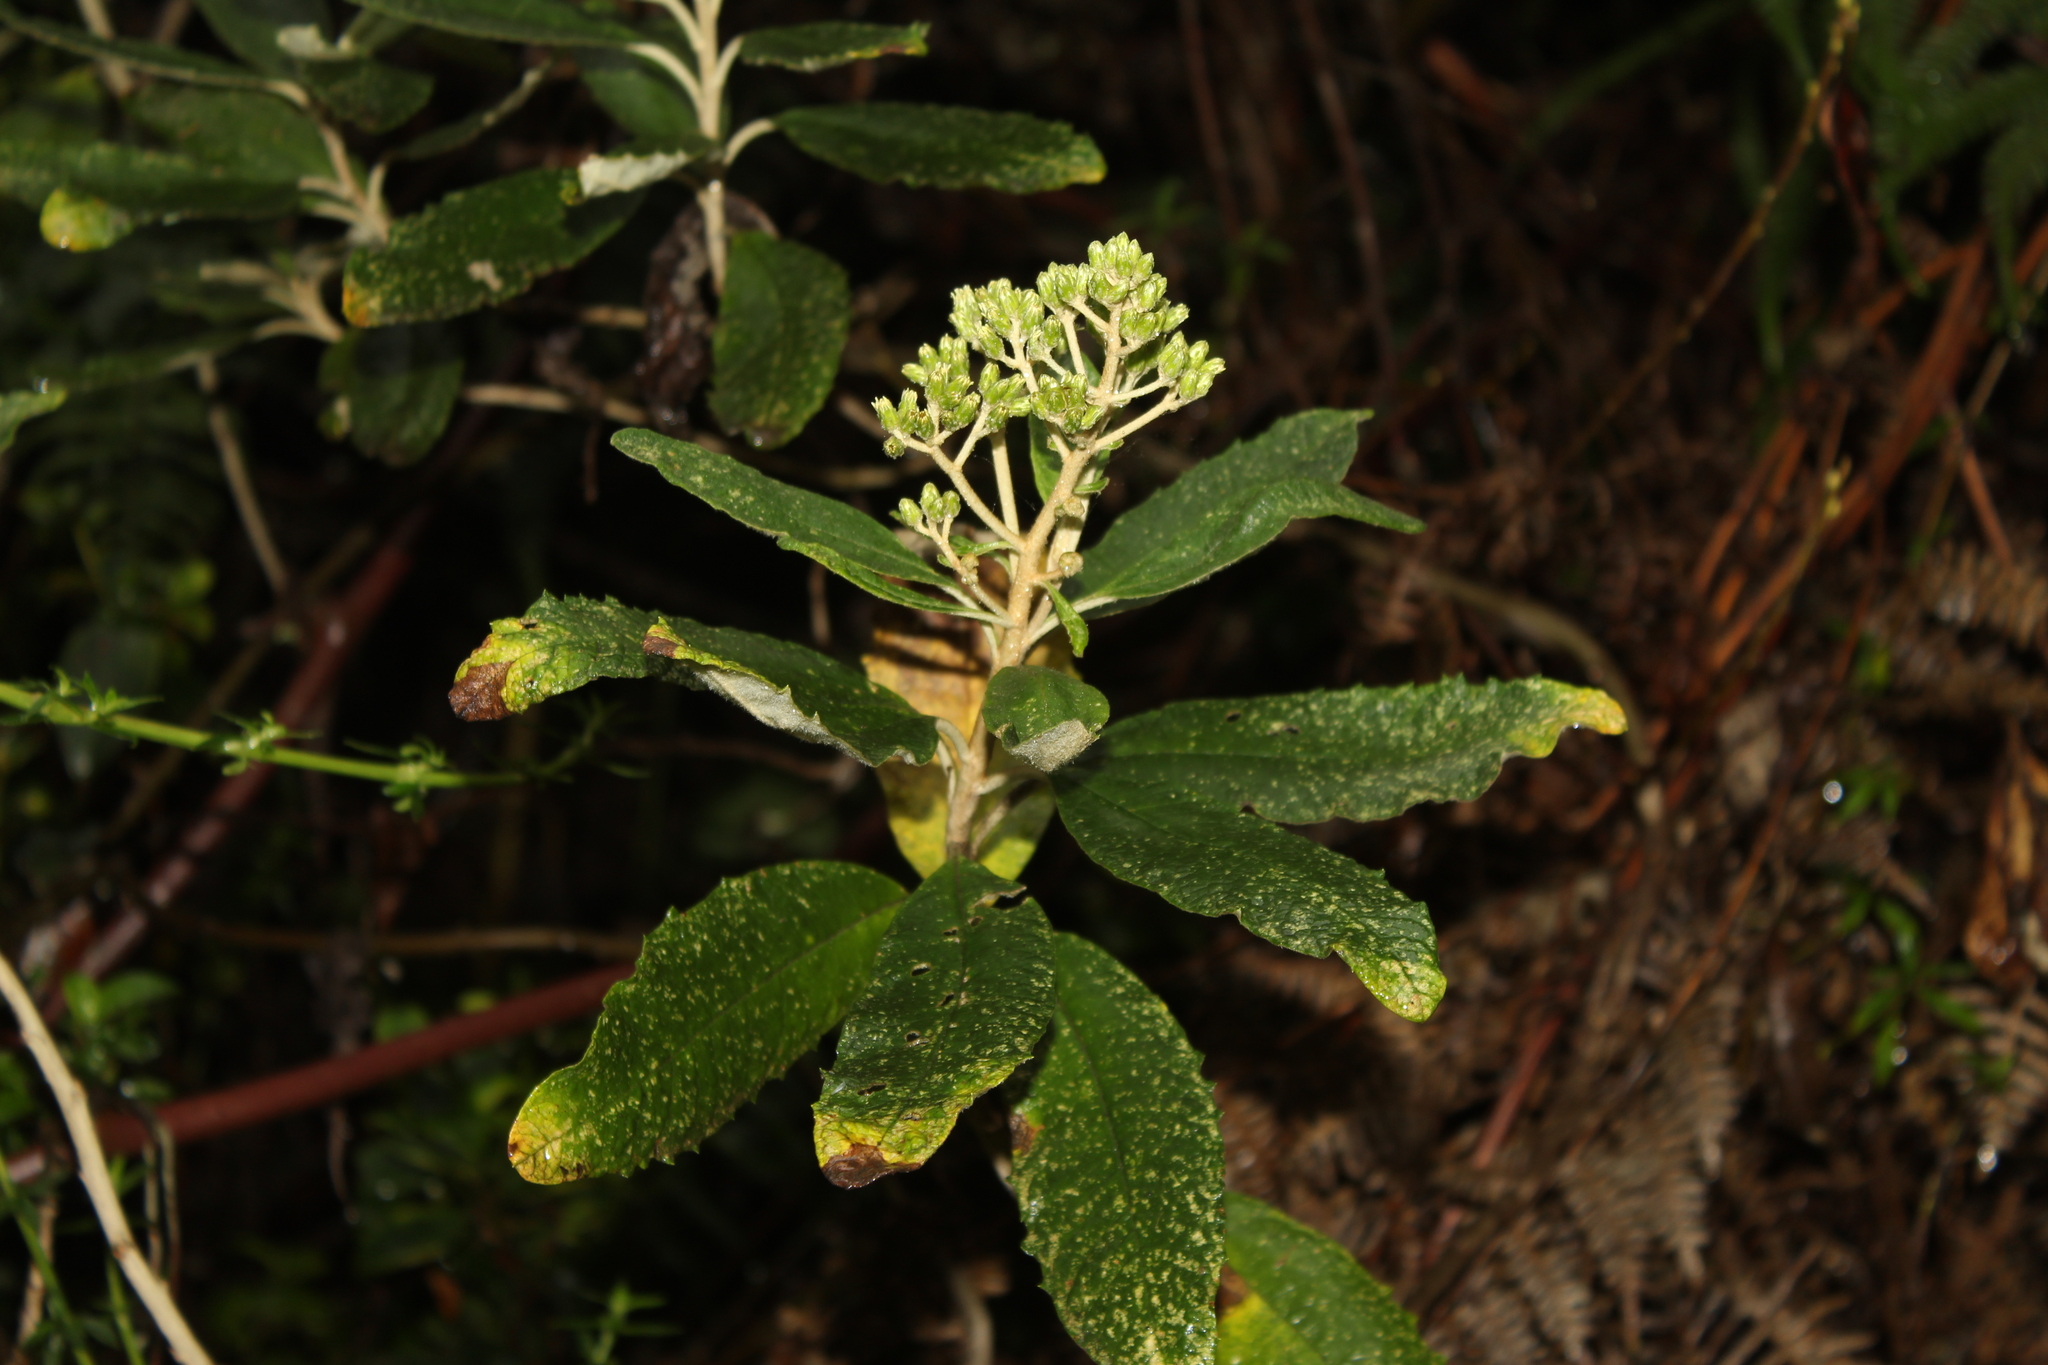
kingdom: Plantae
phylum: Tracheophyta
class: Magnoliopsida
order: Asterales
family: Asteraceae
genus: Linochilus
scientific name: Linochilus tenuifolius
